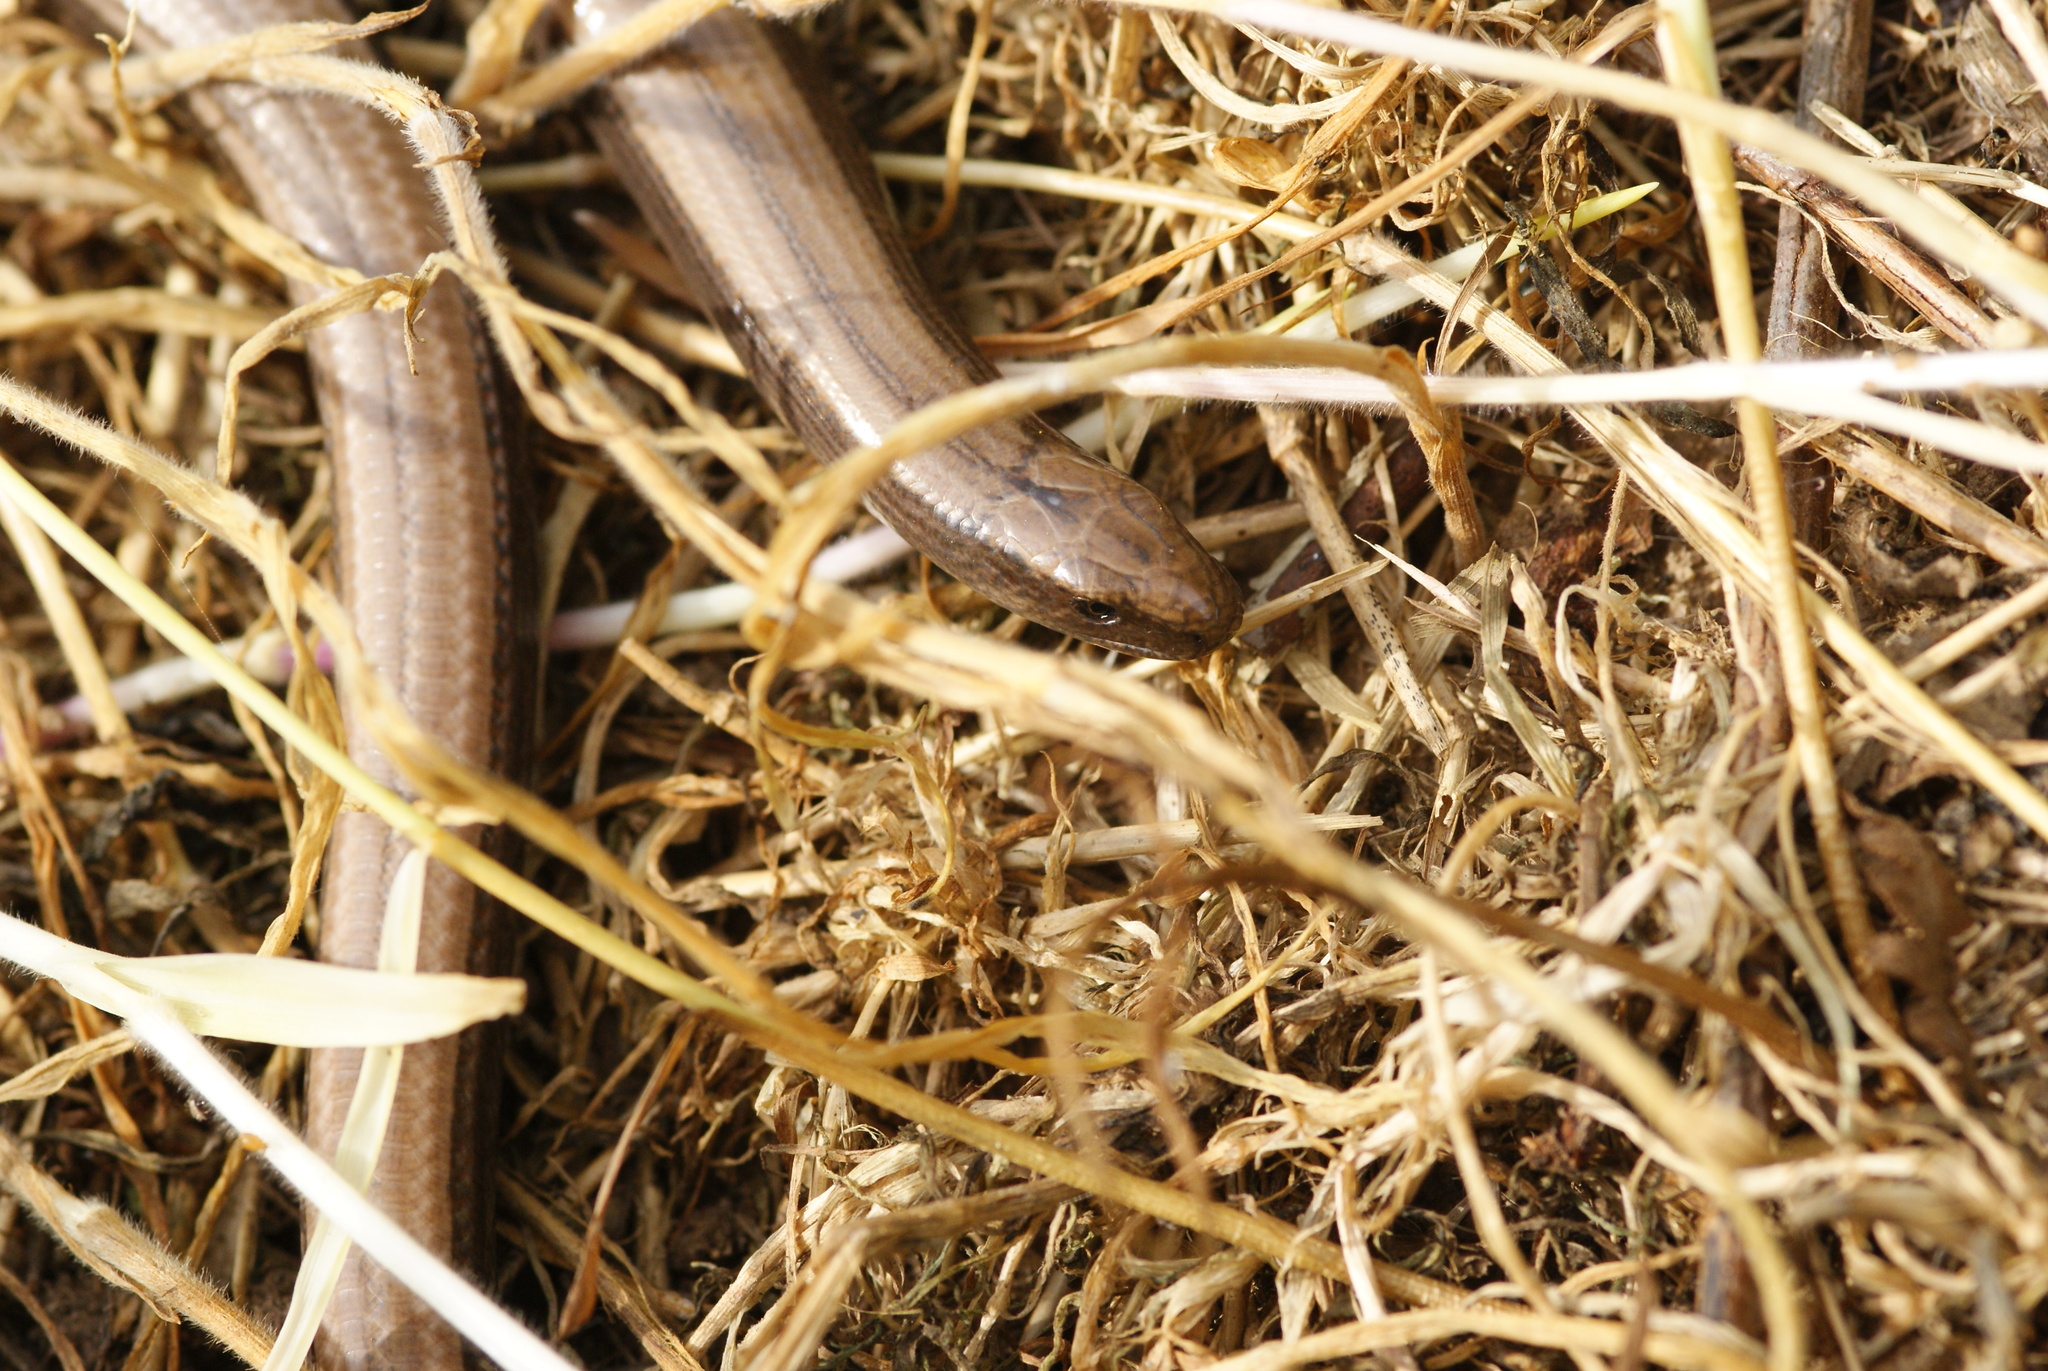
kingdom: Animalia
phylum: Chordata
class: Squamata
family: Anguidae
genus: Anguis
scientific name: Anguis fragilis
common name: Slow worm
